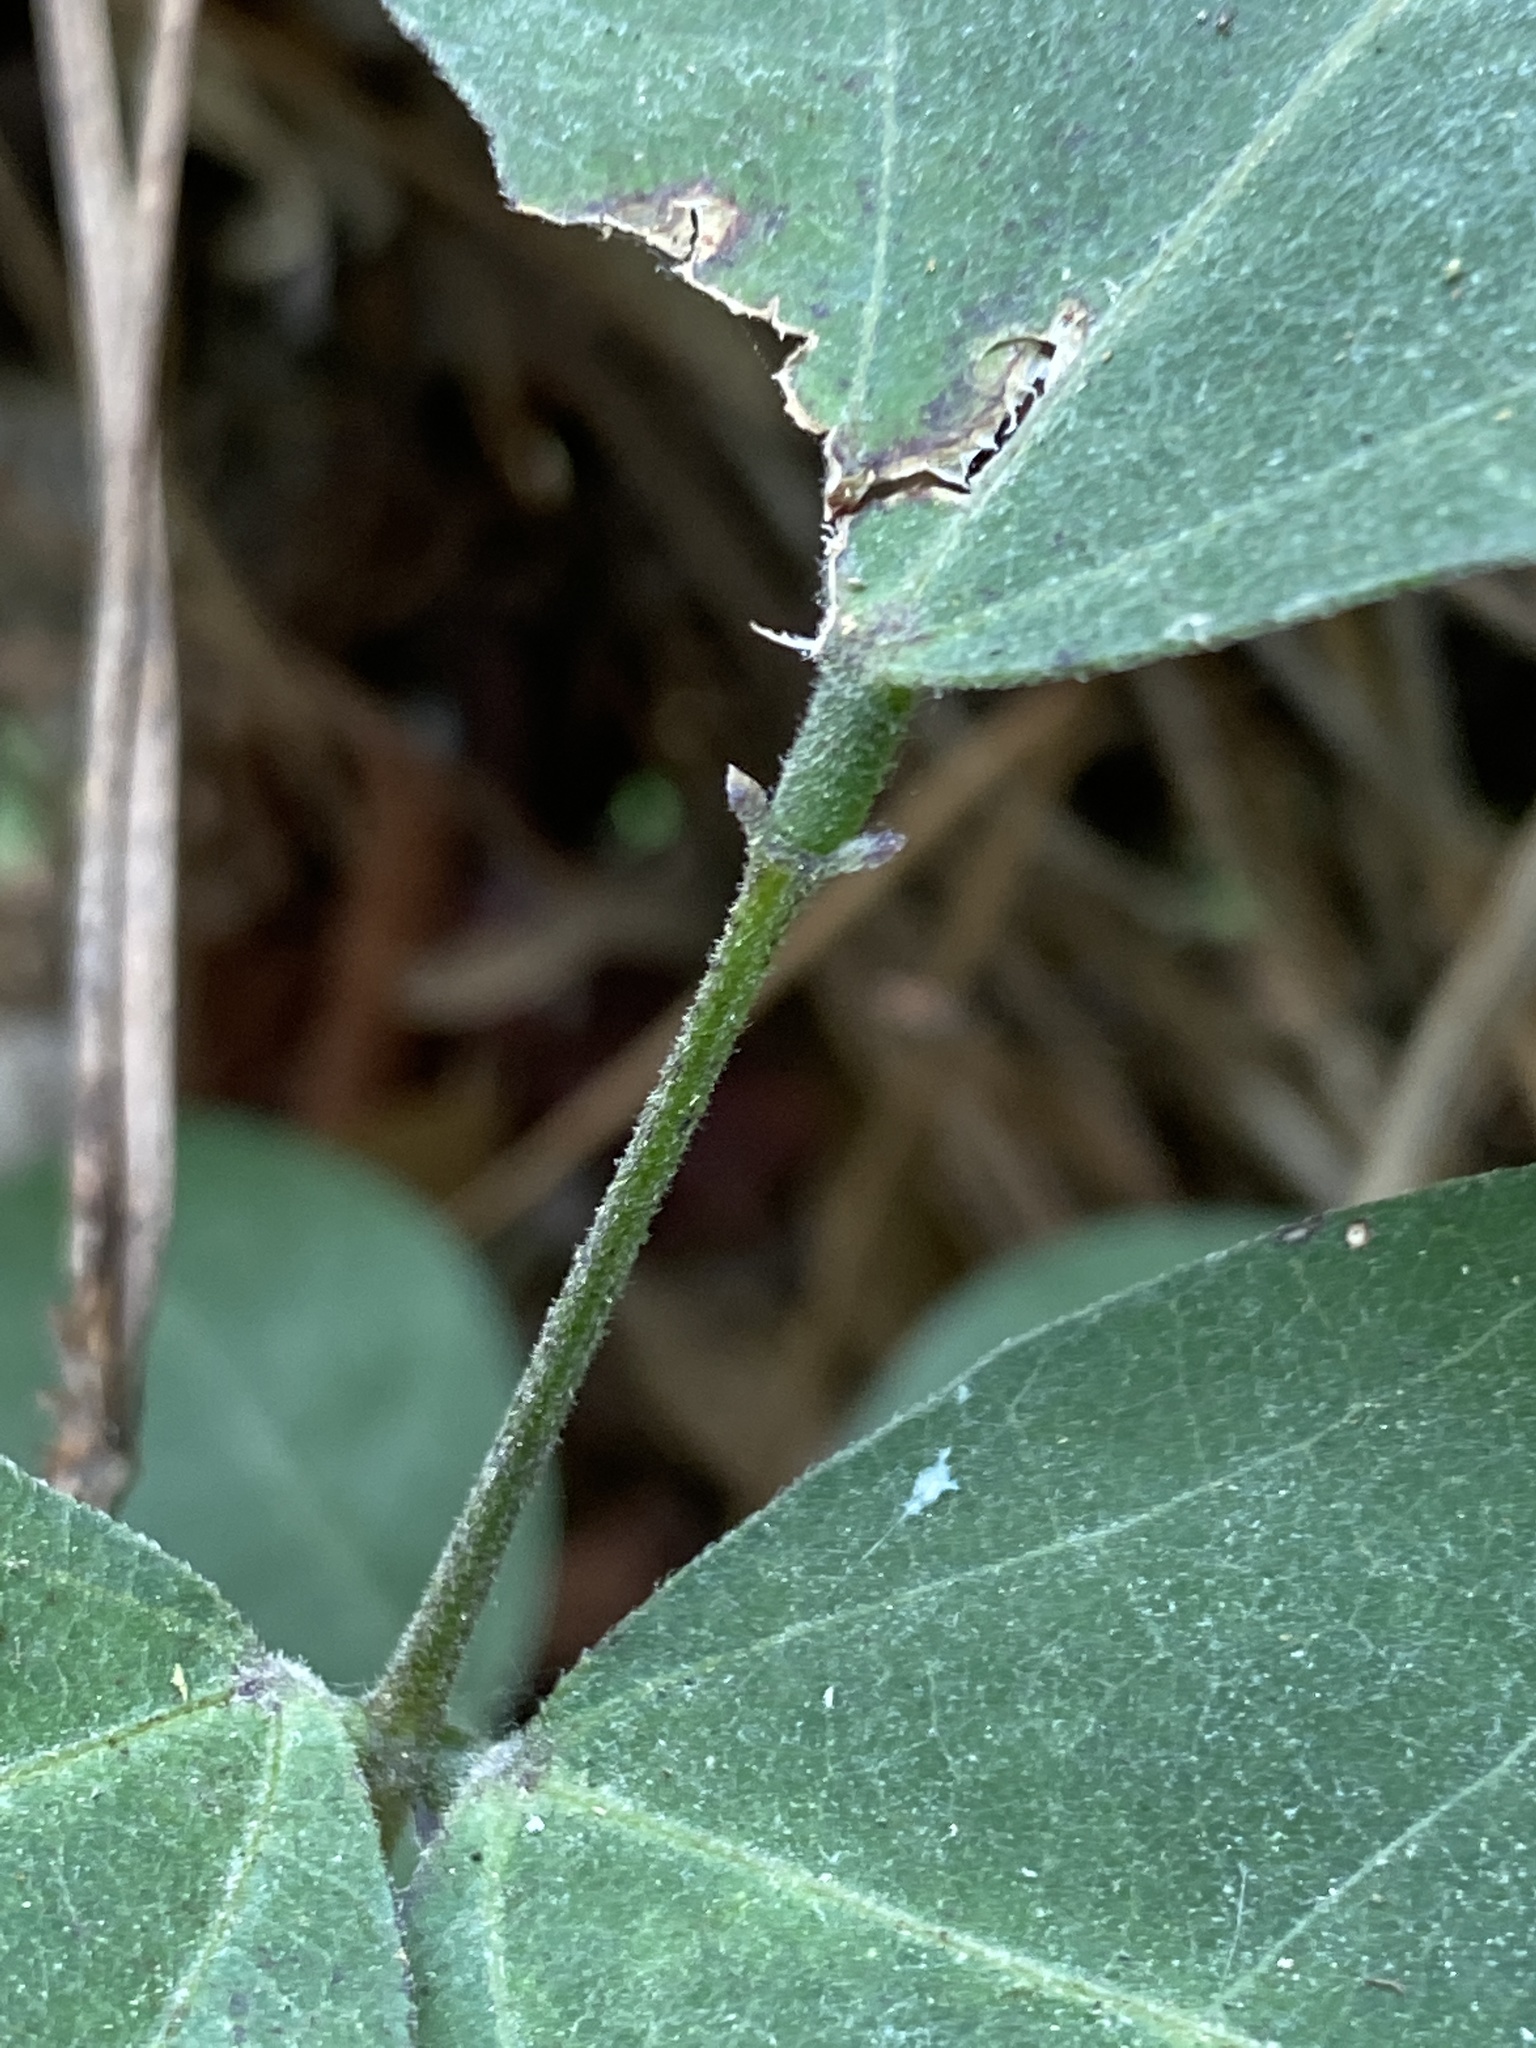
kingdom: Plantae
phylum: Tracheophyta
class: Magnoliopsida
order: Fabales
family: Fabaceae
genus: Phaseolus
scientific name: Phaseolus polystachios
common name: Thicket bean
